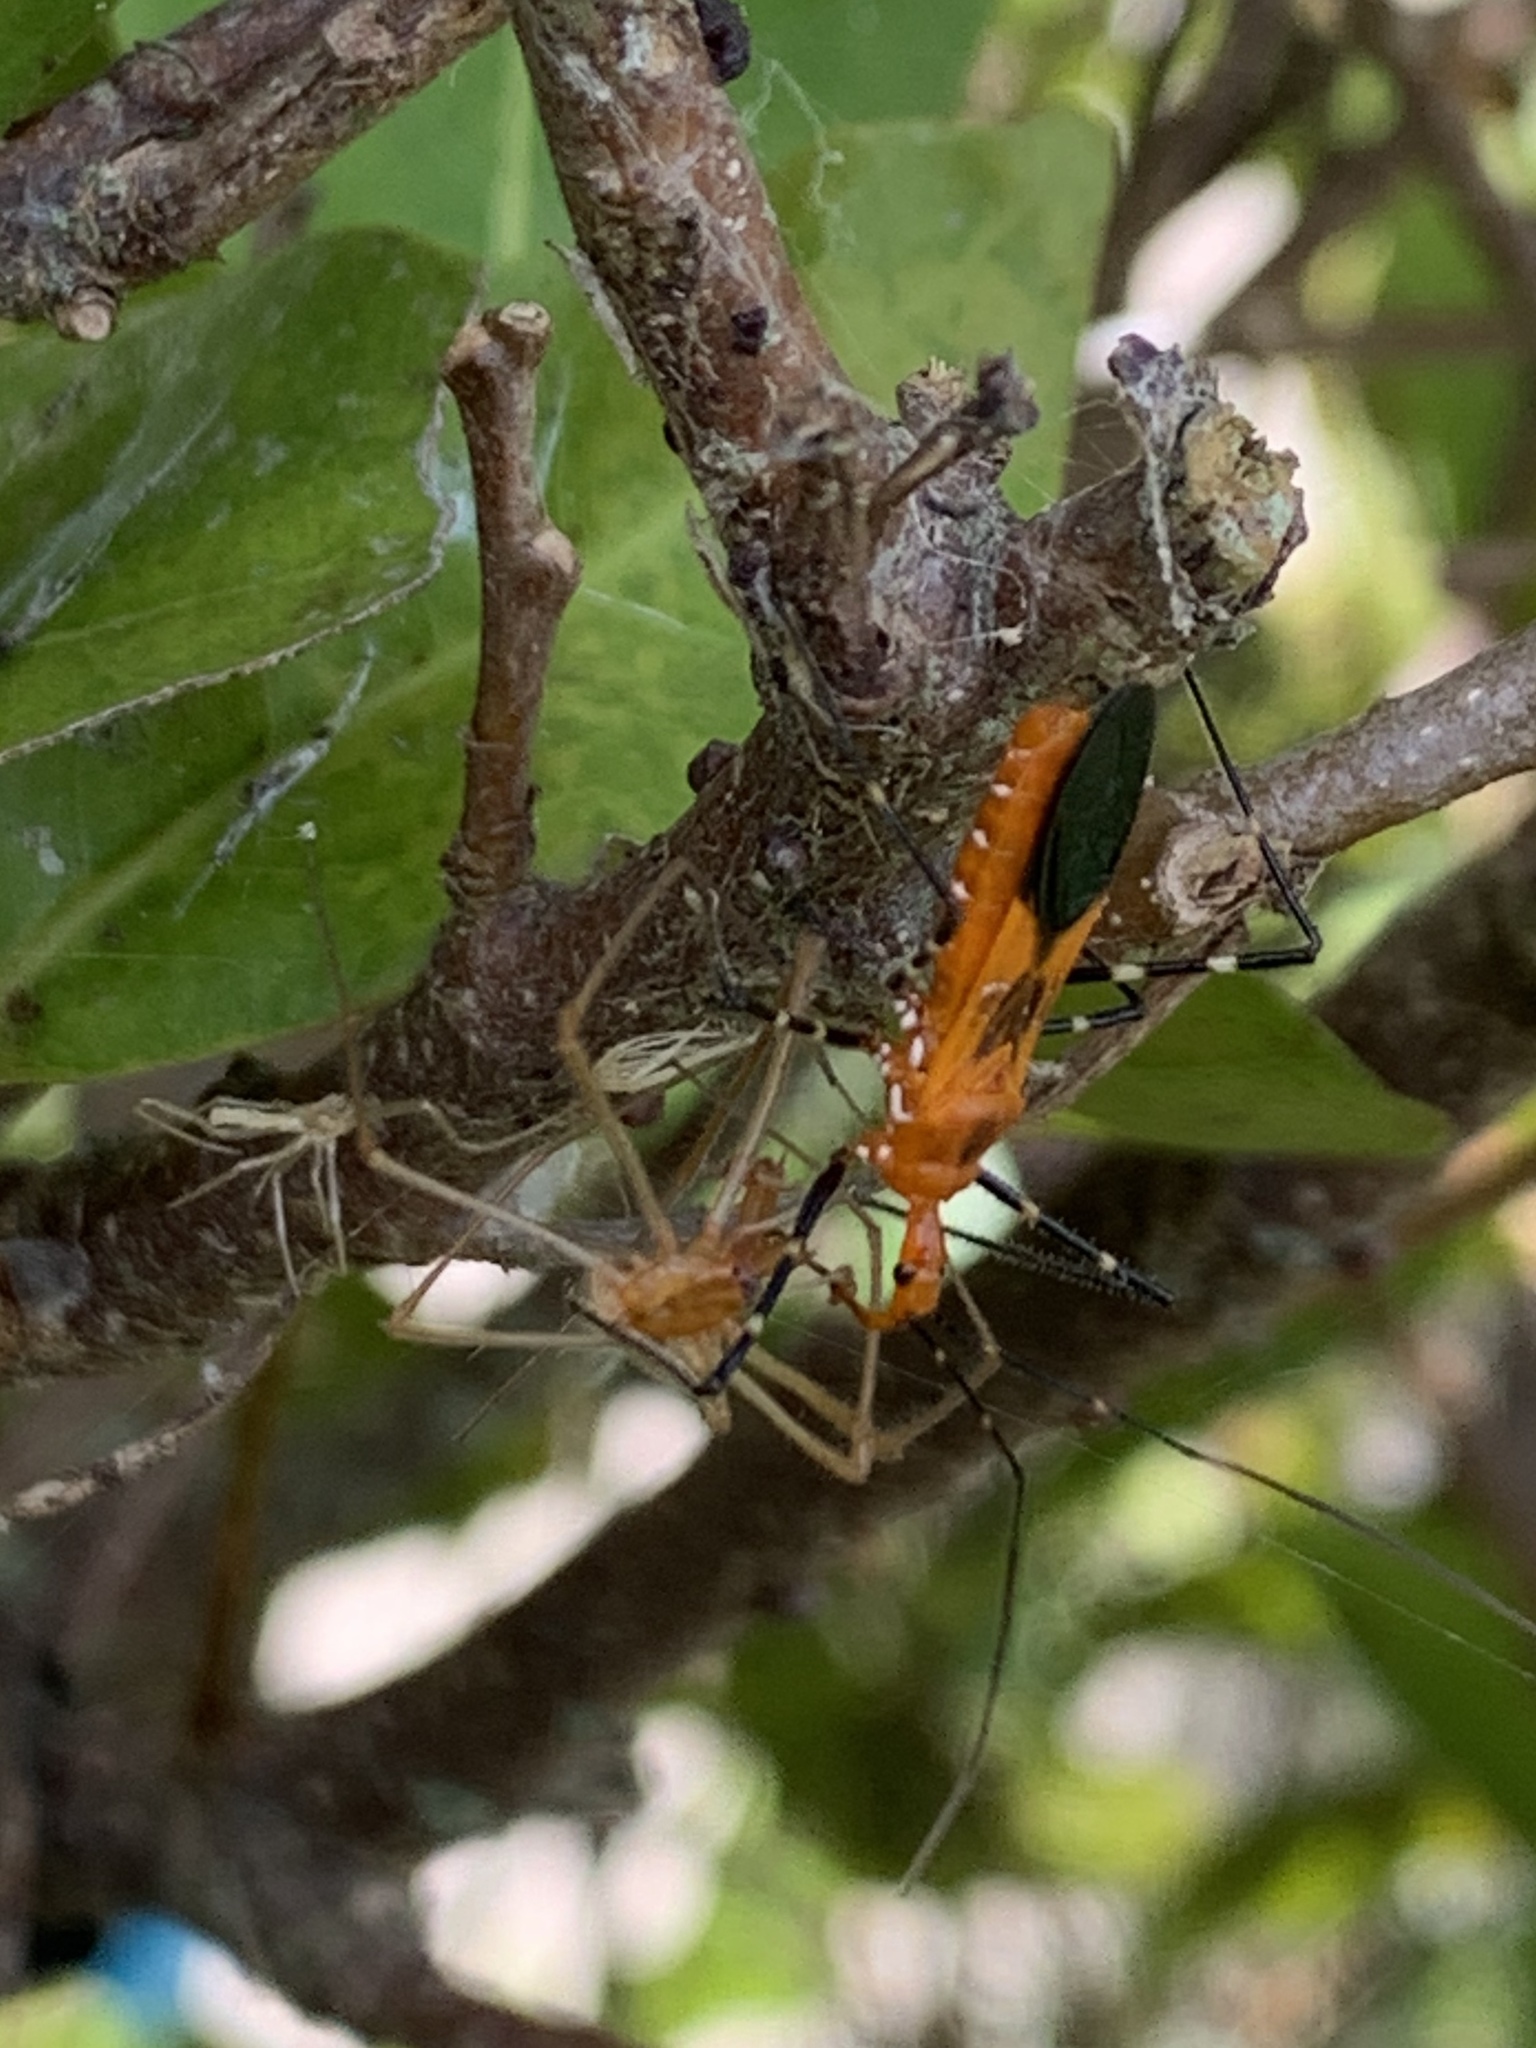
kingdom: Animalia
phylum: Arthropoda
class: Insecta
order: Hemiptera
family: Reduviidae
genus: Zelus
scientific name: Zelus longipes
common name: Milkweed assassin bug
